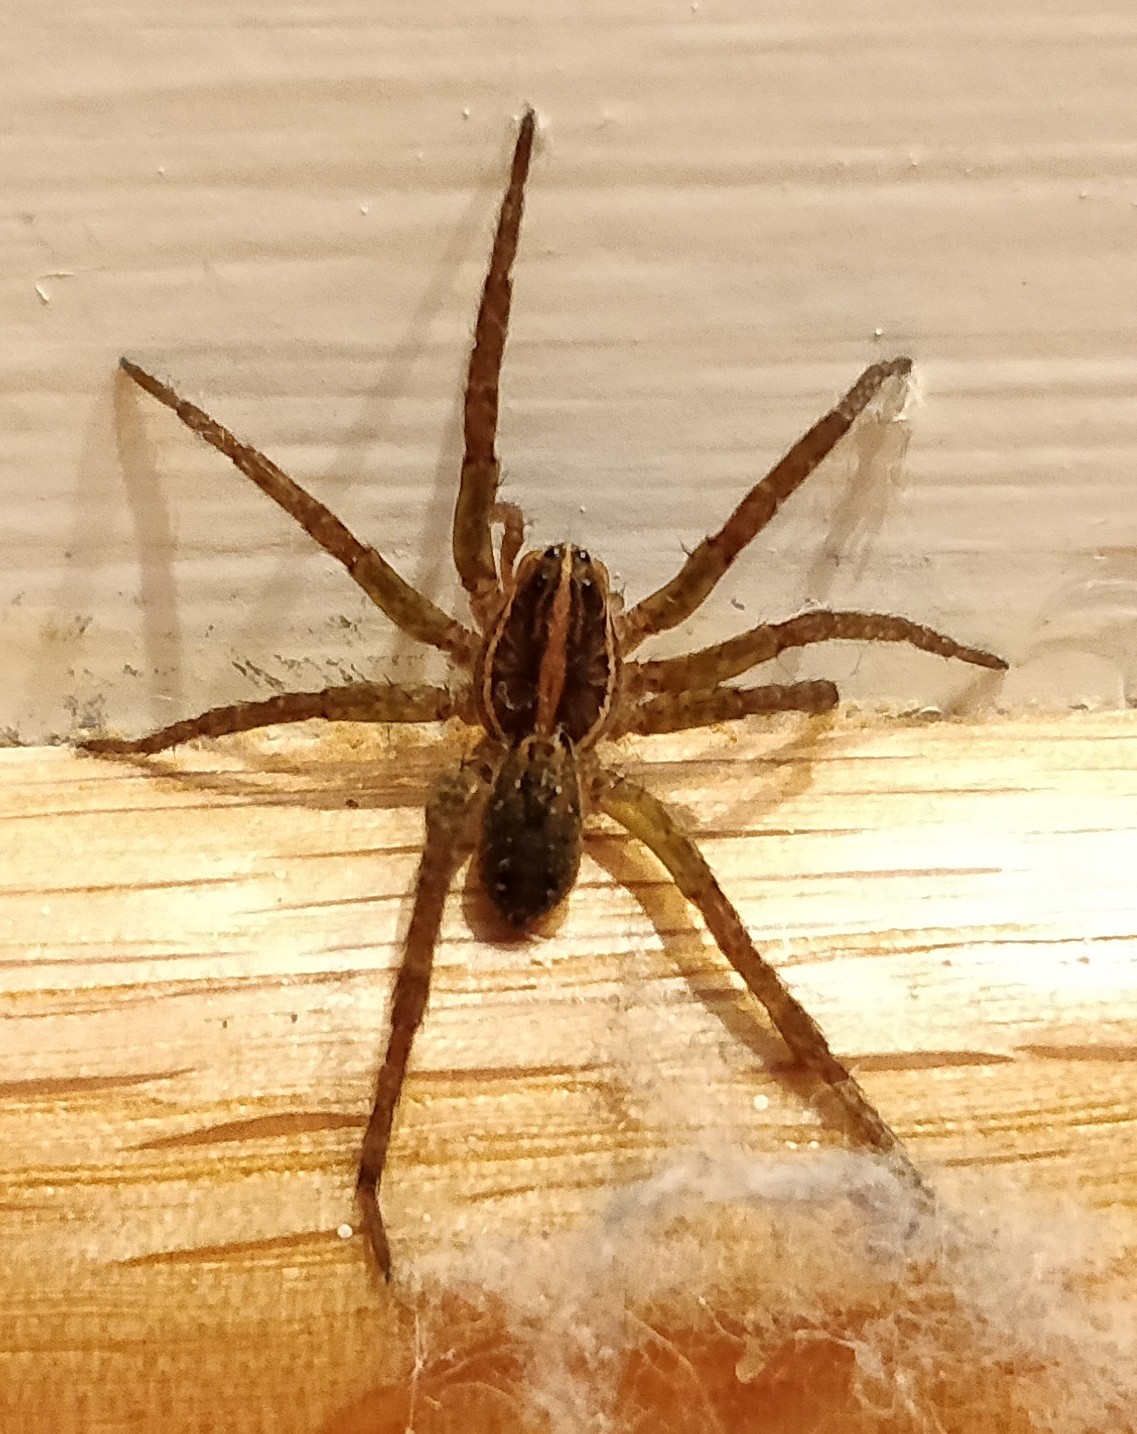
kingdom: Animalia
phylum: Arthropoda
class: Arachnida
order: Araneae
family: Lycosidae
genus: Tigrosa
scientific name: Tigrosa annexa
